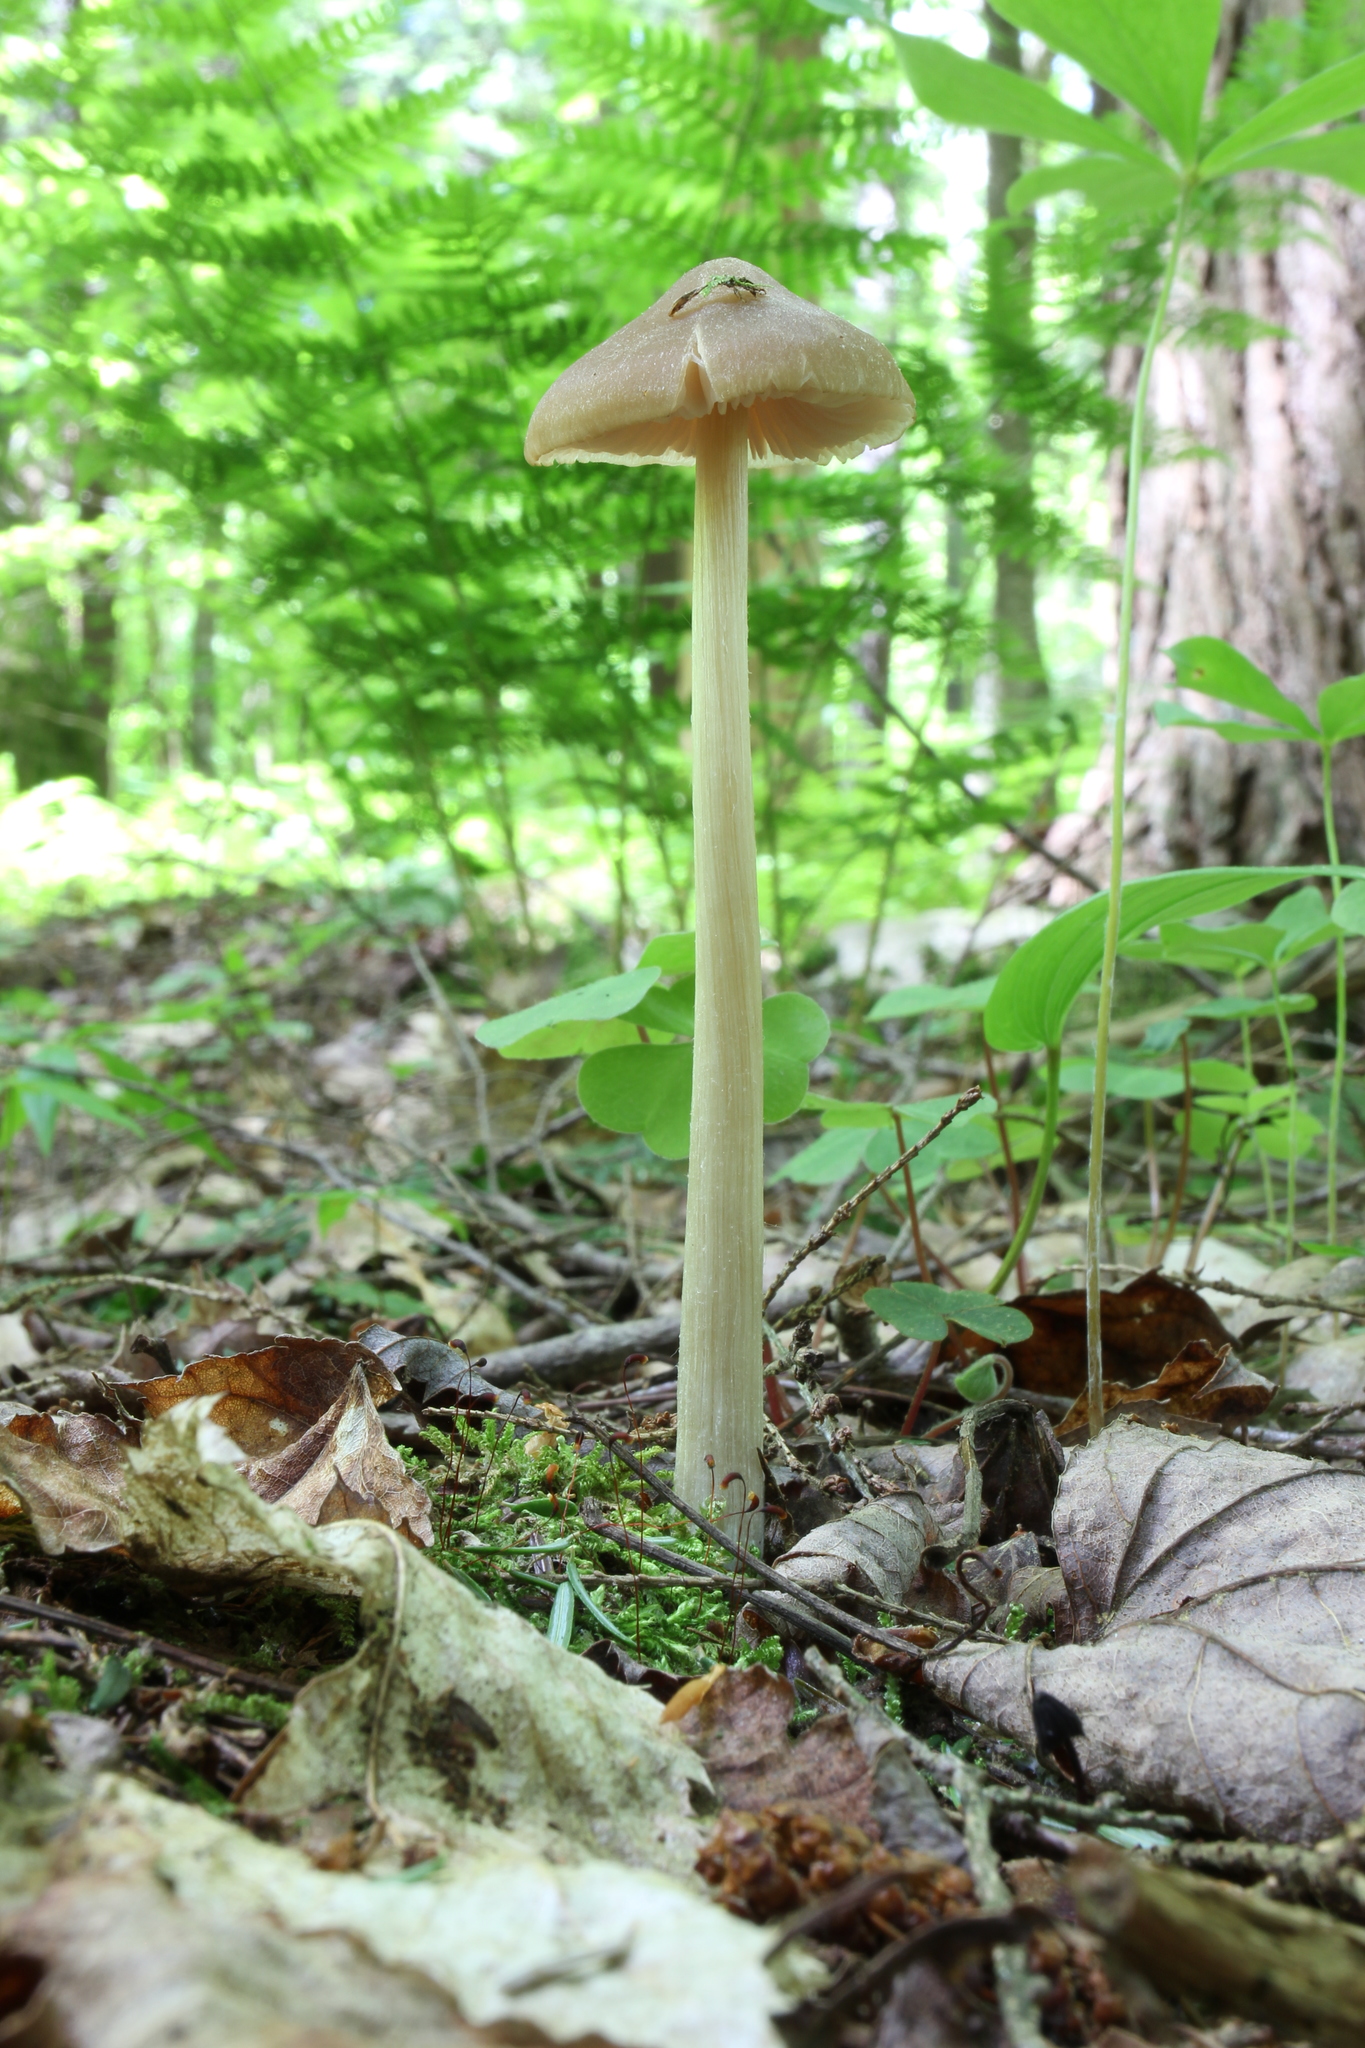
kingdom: Fungi
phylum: Basidiomycota
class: Agaricomycetes
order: Agaricales
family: Entolomataceae
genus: Entoloma
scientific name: Entoloma strictius
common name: Straight-stalked entoloma
